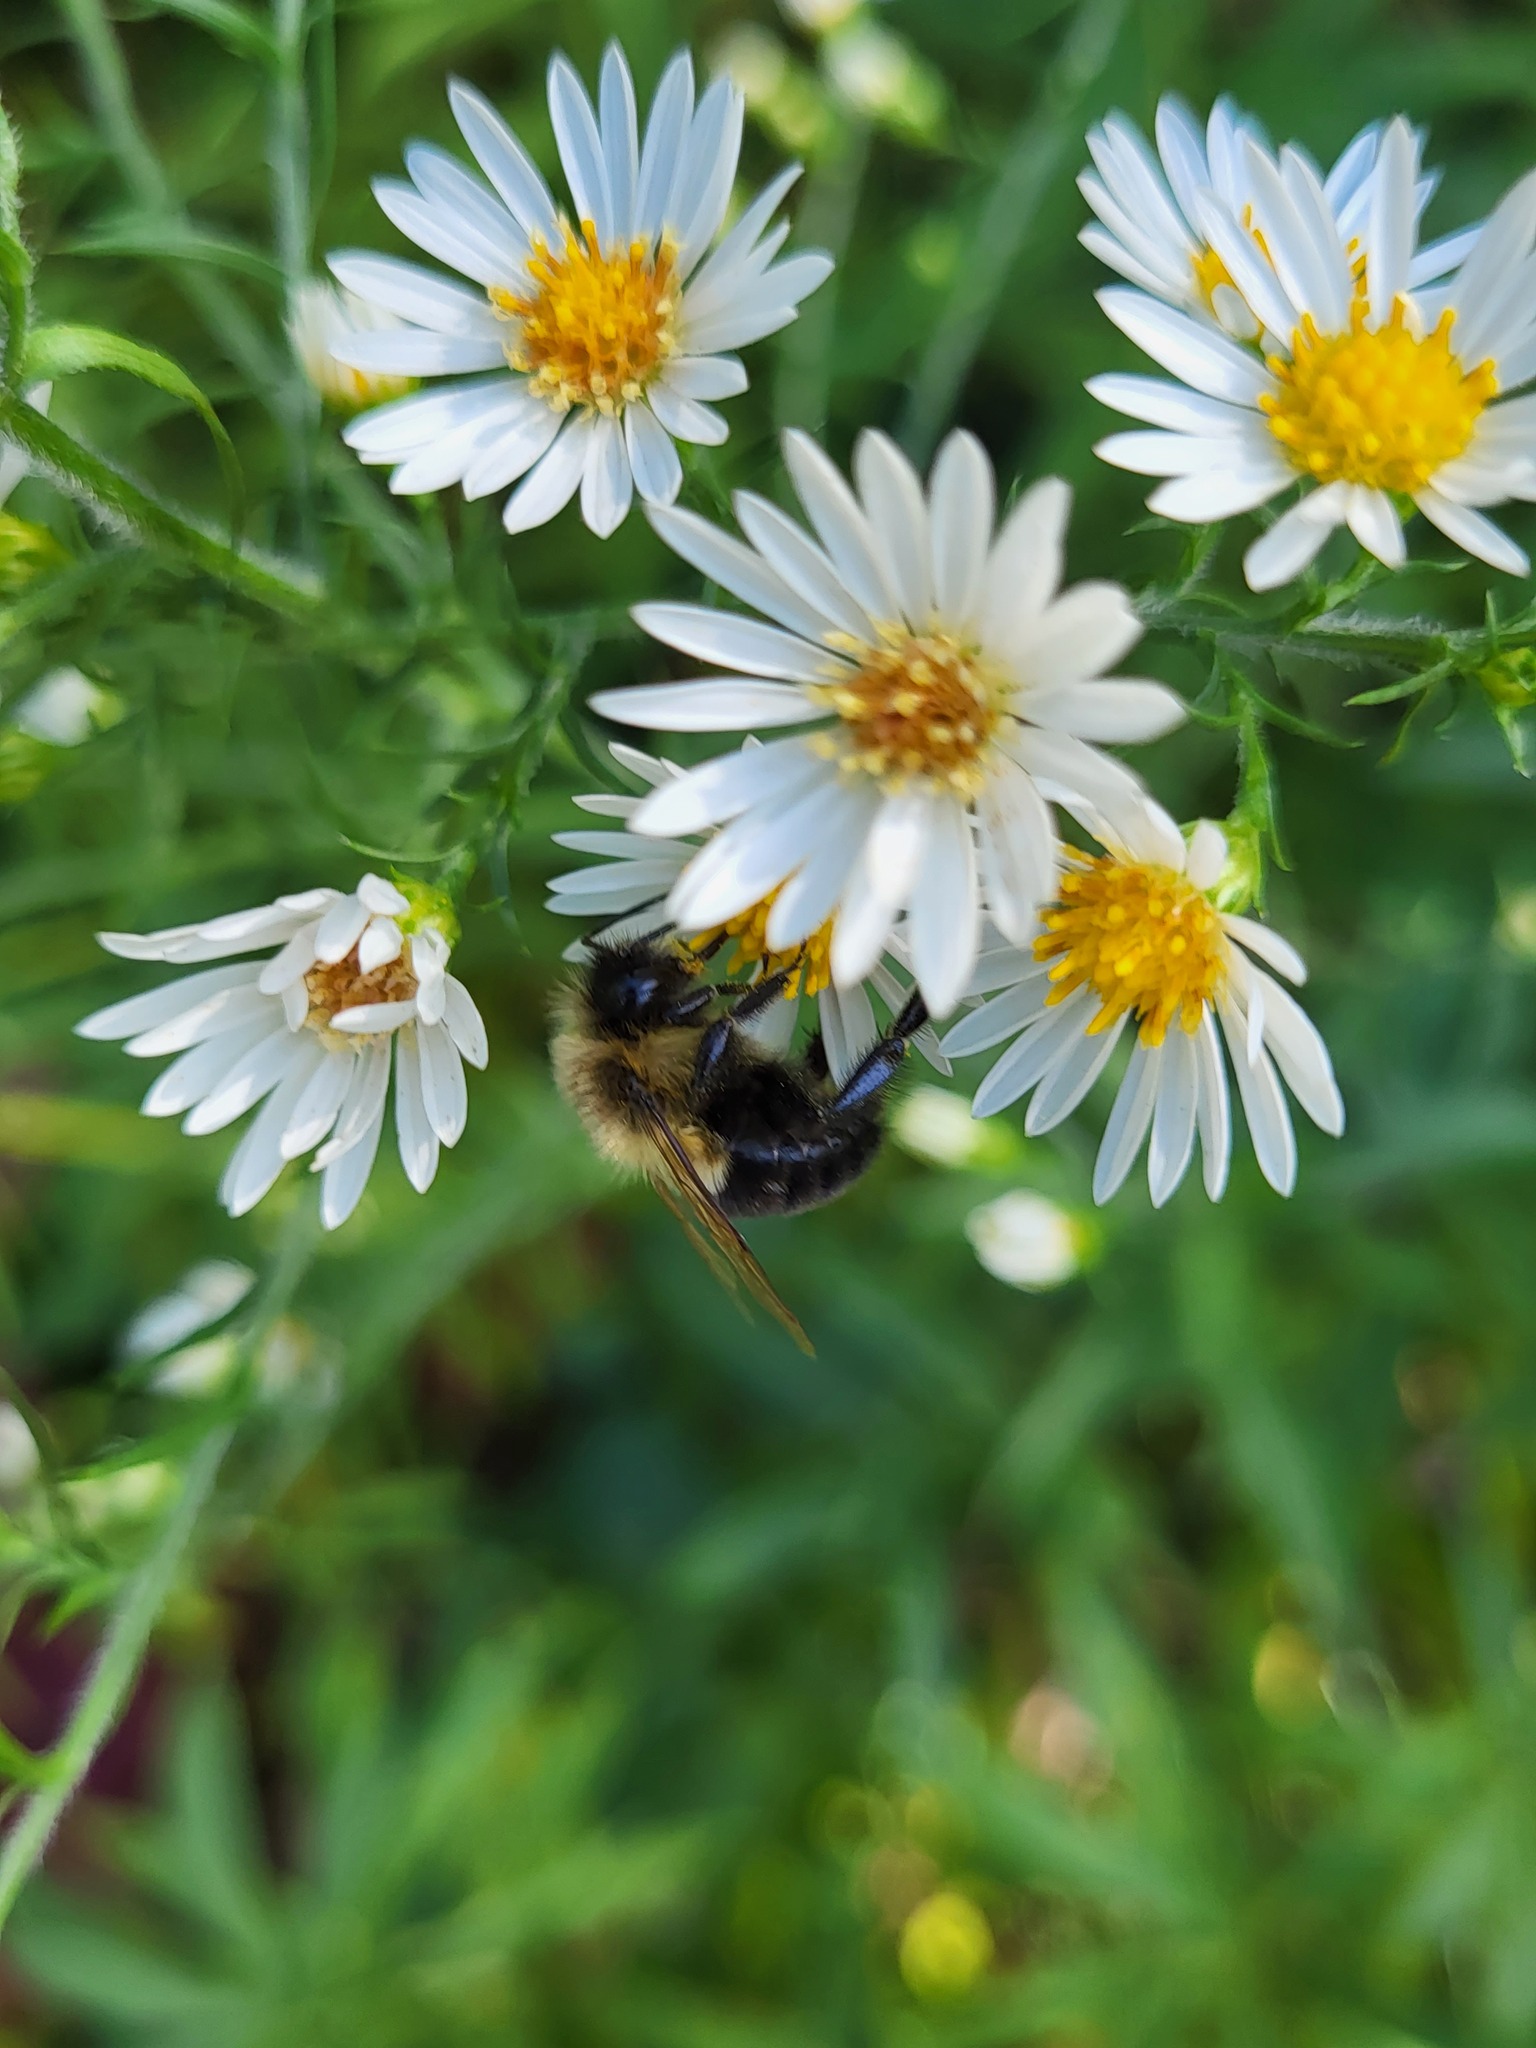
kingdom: Animalia
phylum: Arthropoda
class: Insecta
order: Hymenoptera
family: Apidae
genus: Bombus
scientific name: Bombus impatiens
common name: Common eastern bumble bee
